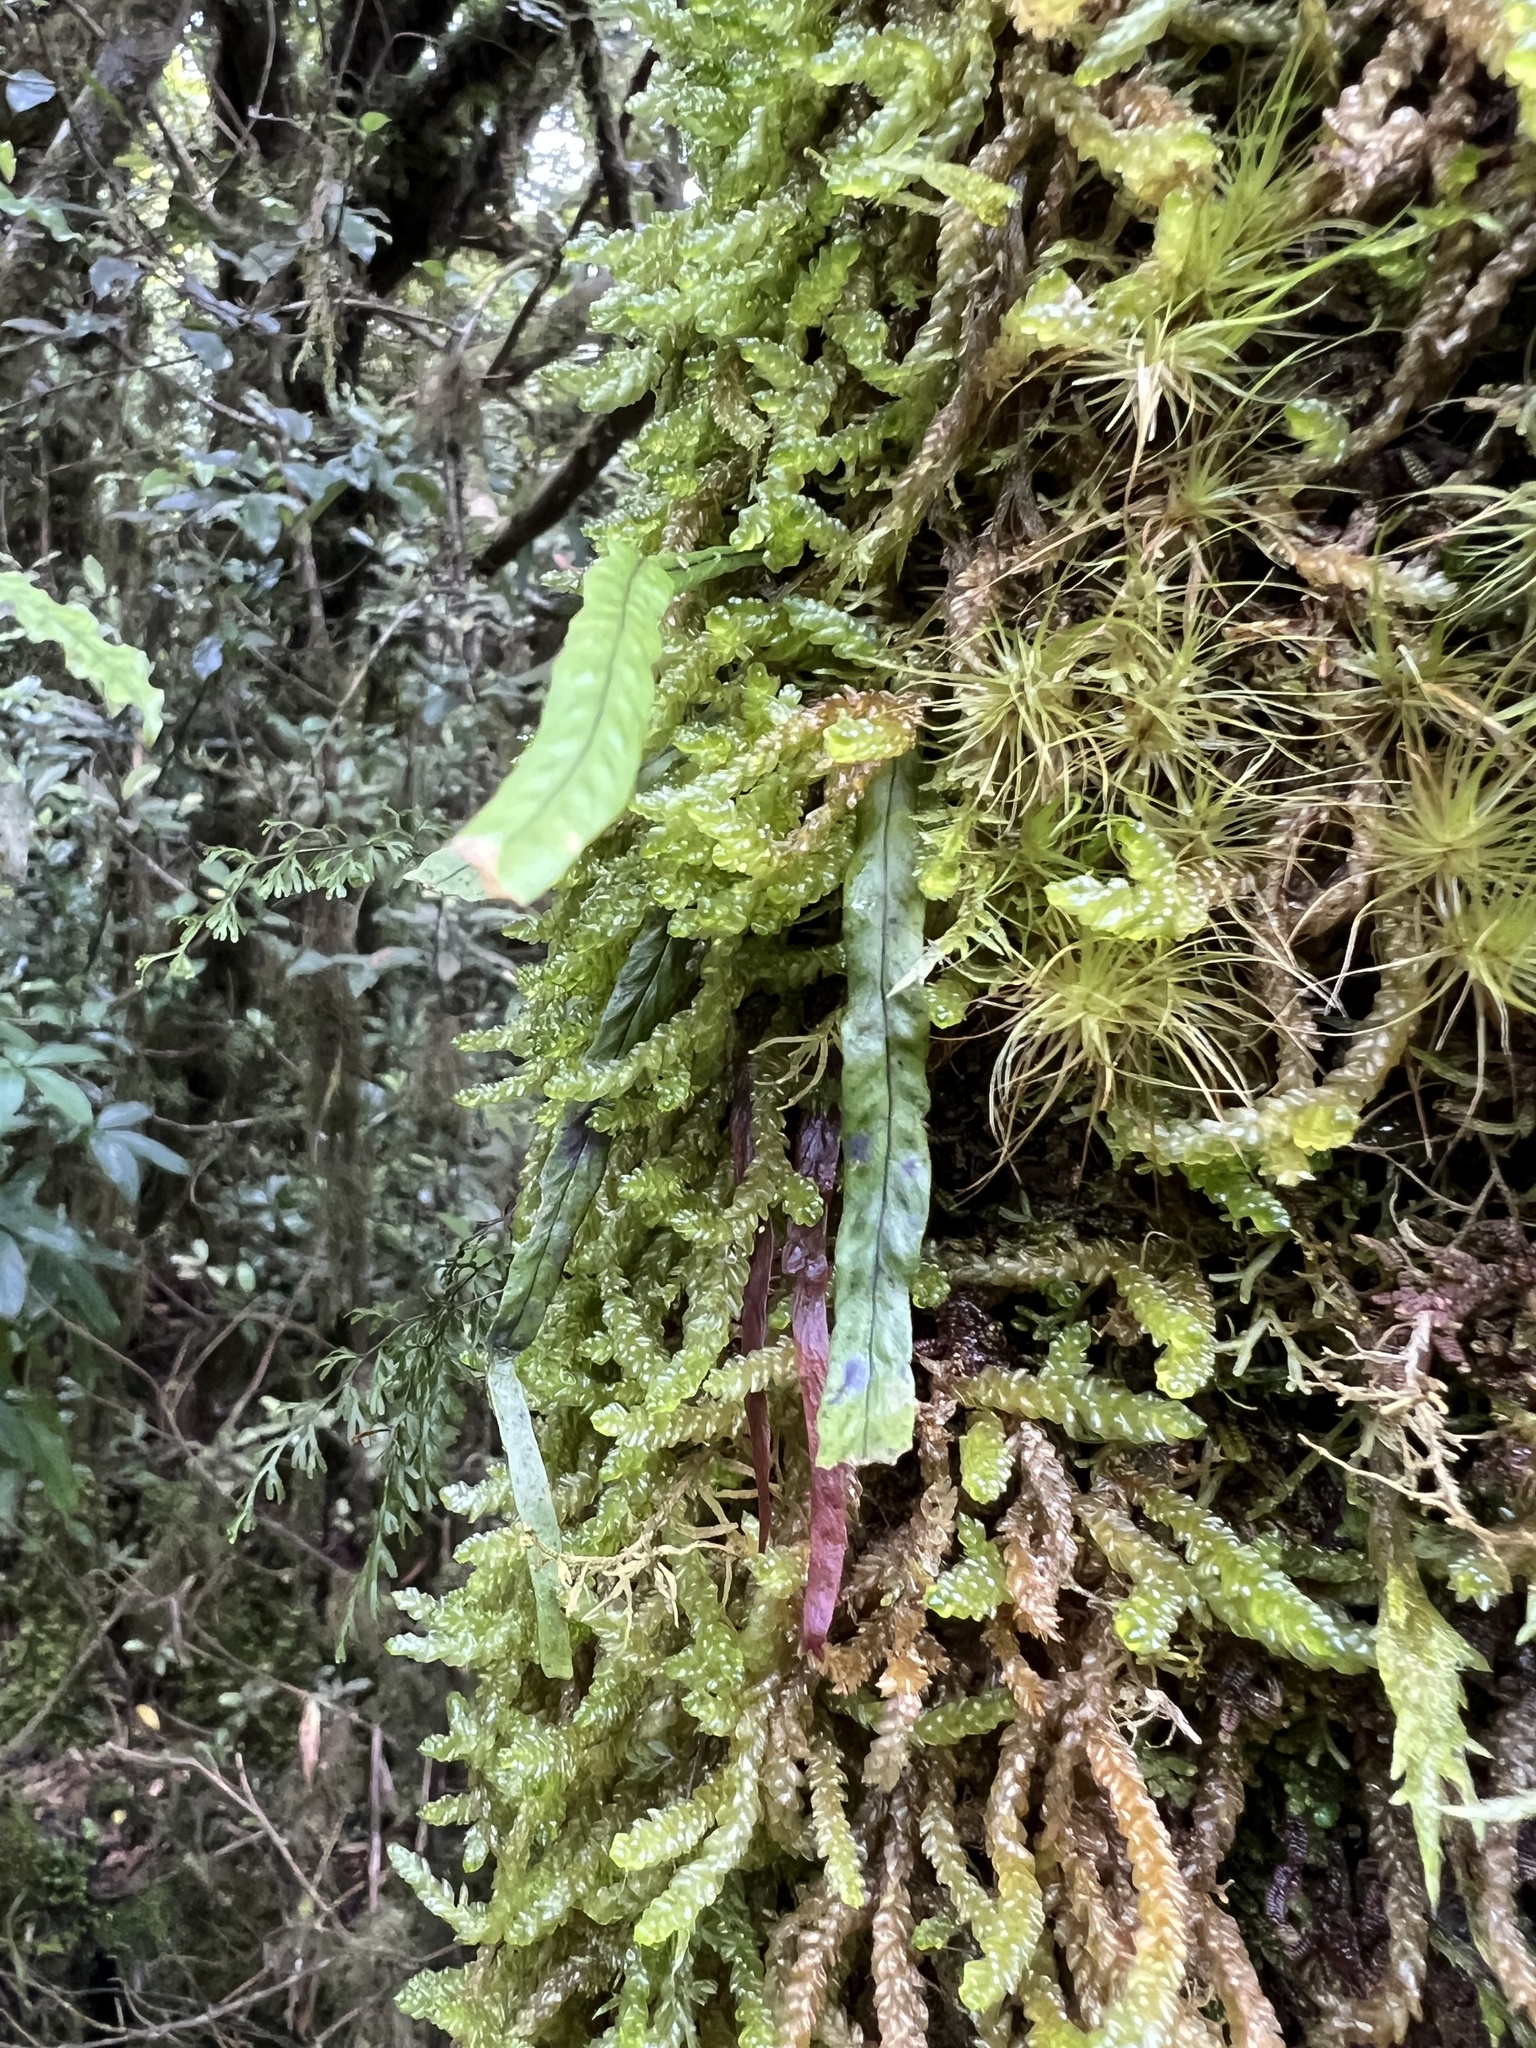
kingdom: Plantae
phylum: Tracheophyta
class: Polypodiopsida
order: Polypodiales
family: Polypodiaceae
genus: Notogrammitis
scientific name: Notogrammitis ciliata
